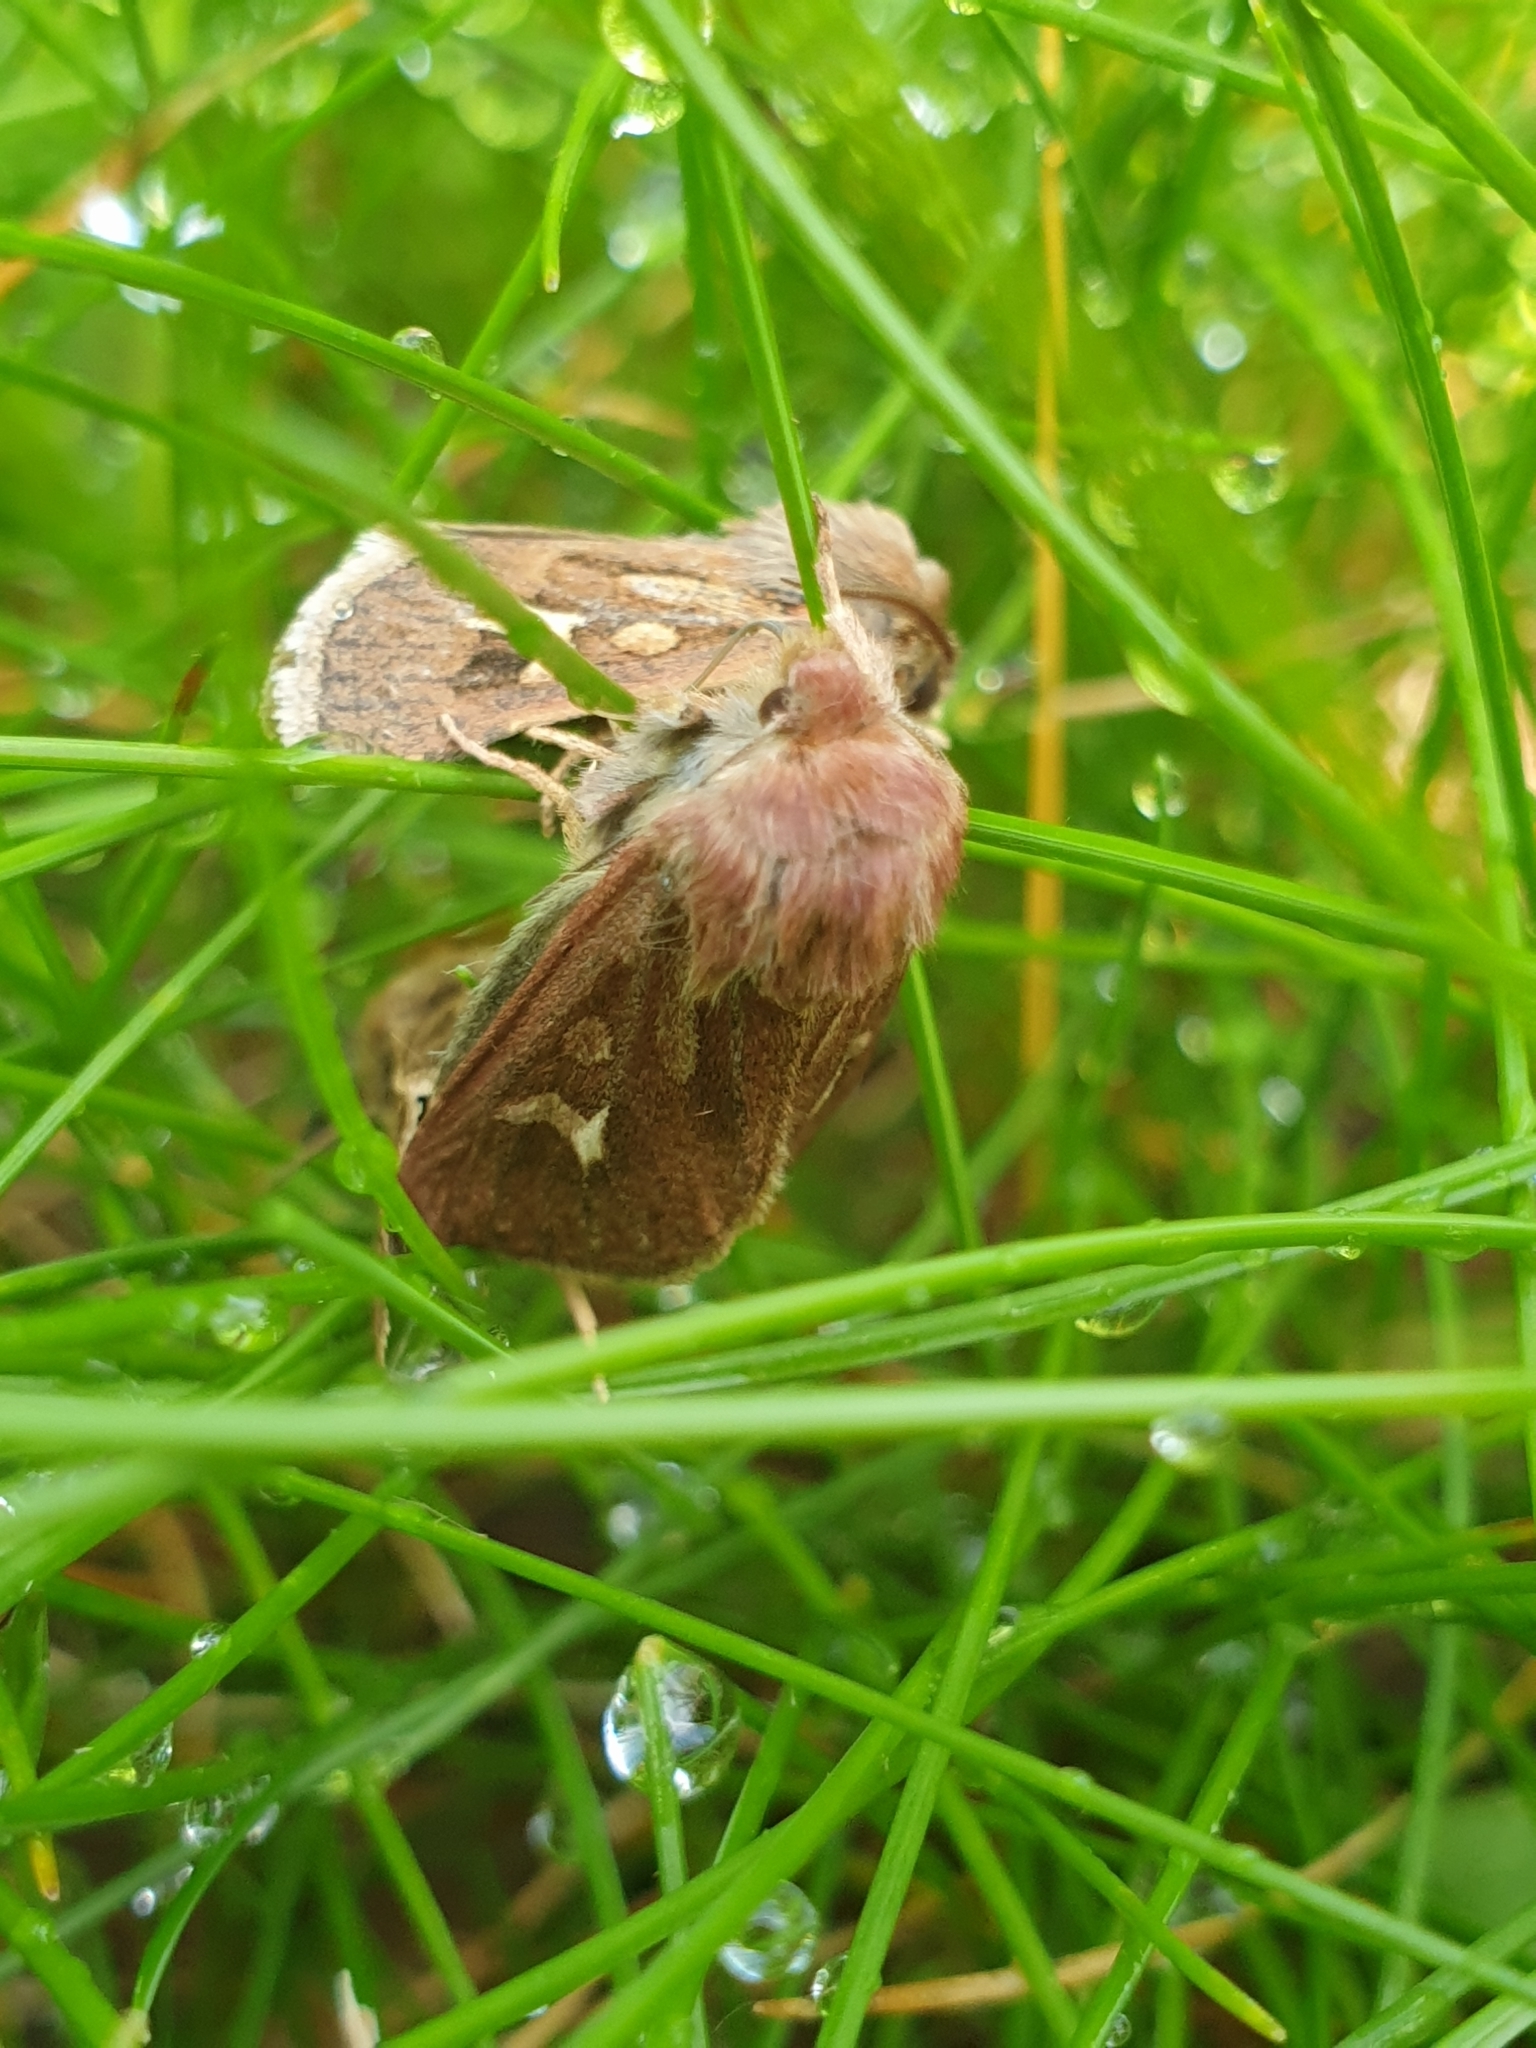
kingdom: Animalia
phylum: Arthropoda
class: Insecta
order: Lepidoptera
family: Noctuidae
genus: Cerapteryx
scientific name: Cerapteryx graminis
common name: Antler moth
